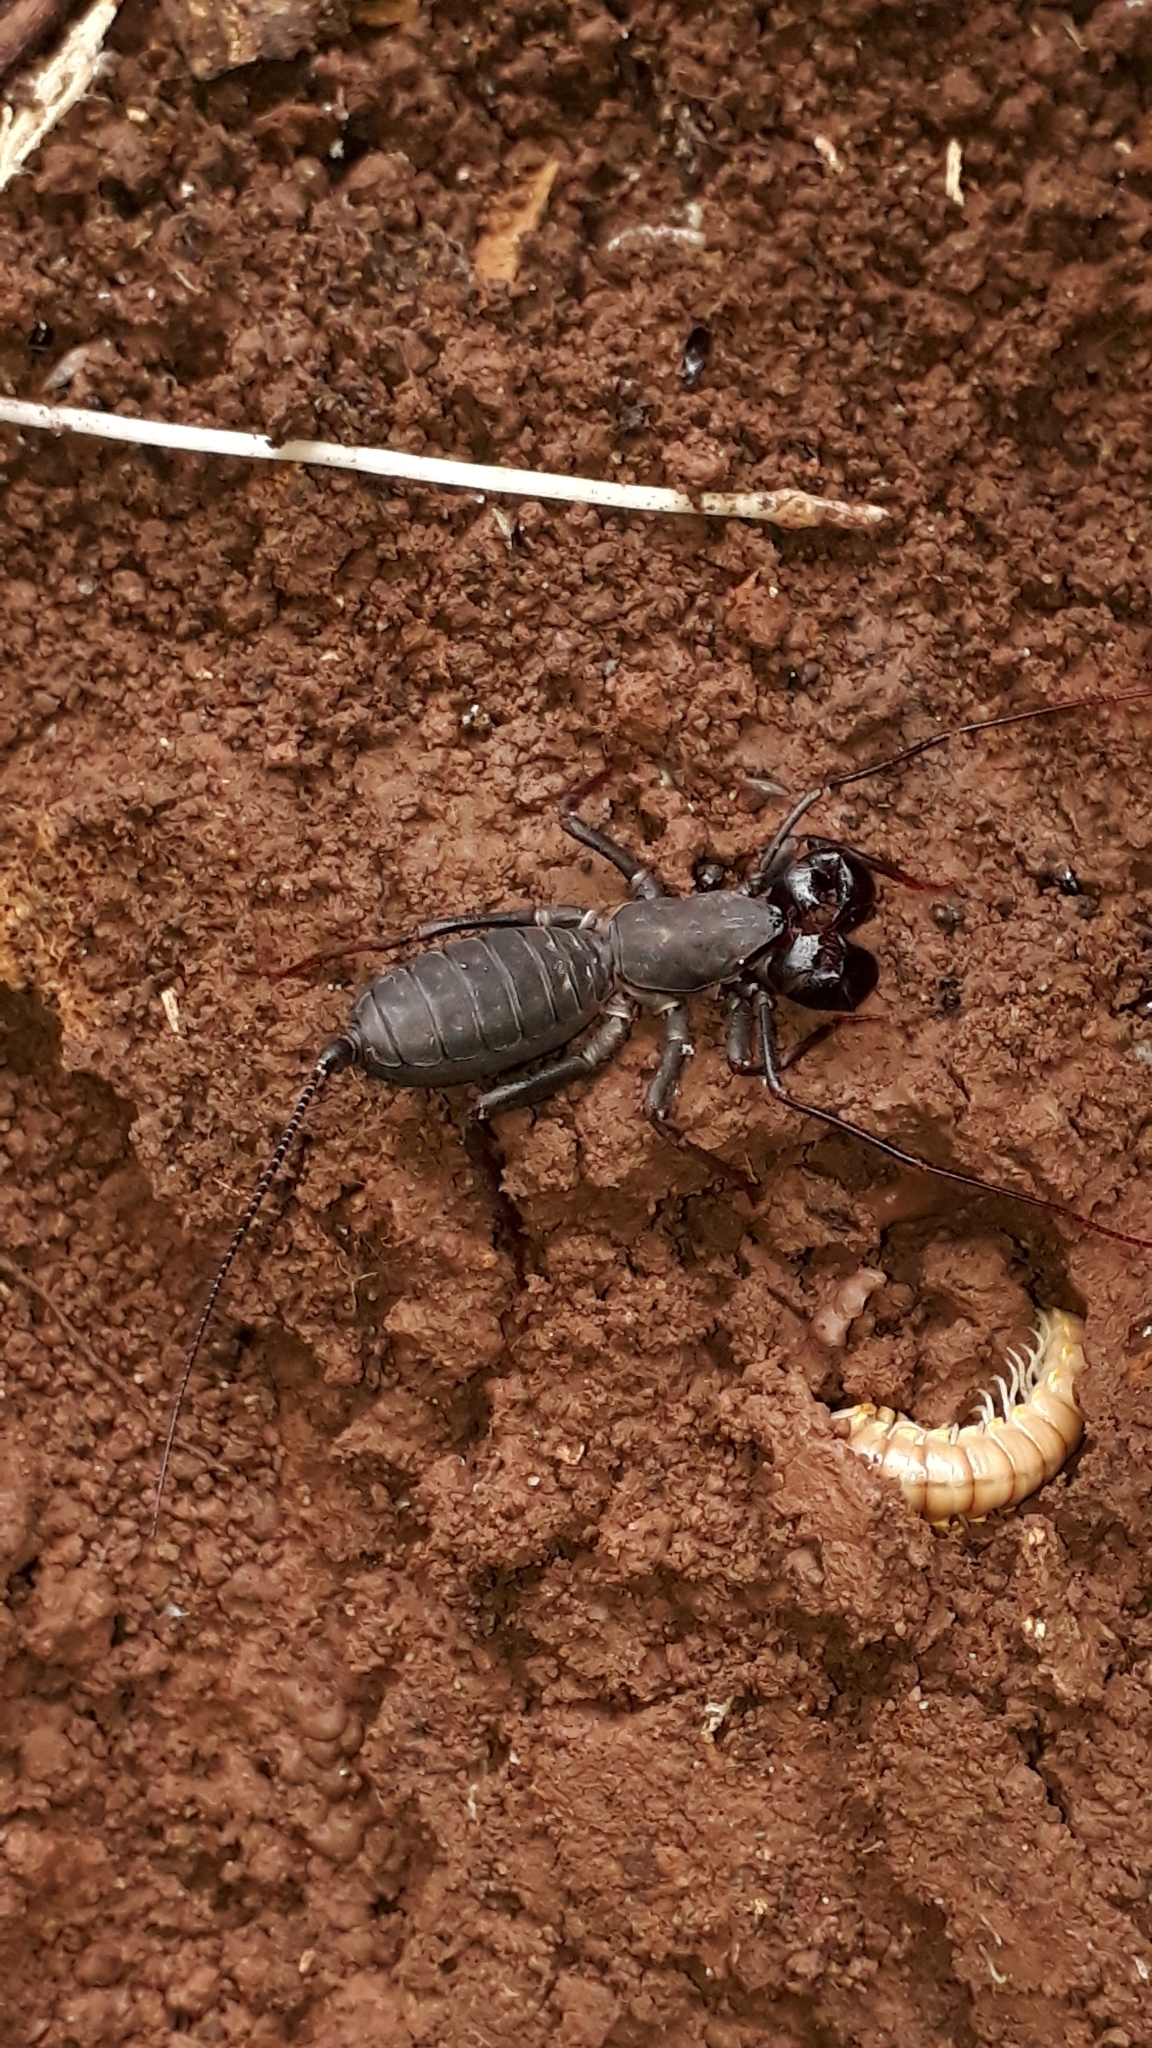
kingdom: Animalia
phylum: Arthropoda
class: Arachnida
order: Uropygi
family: Thelyphonidae
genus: Mastigoproctus
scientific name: Mastigoproctus colombianus
